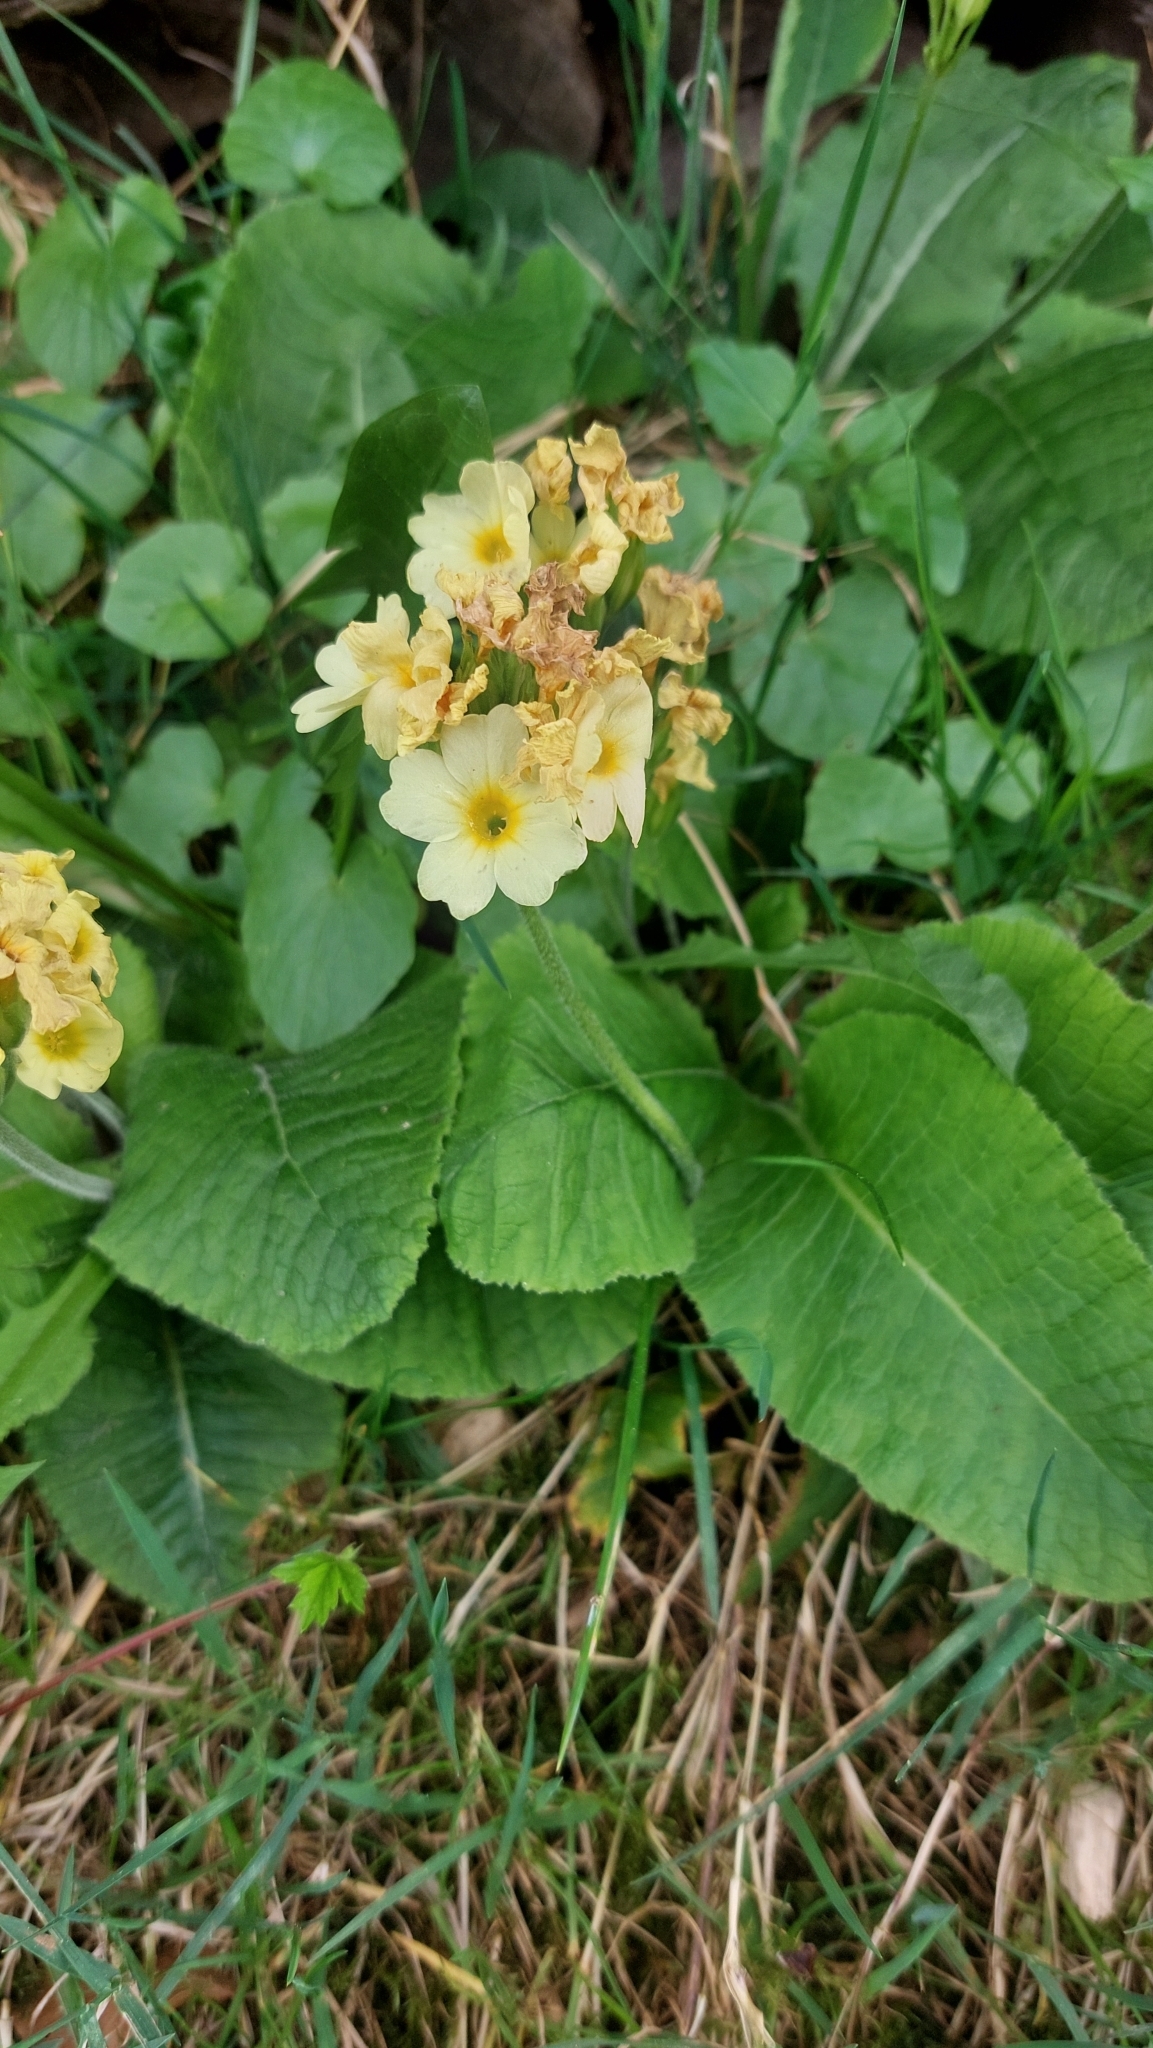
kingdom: Plantae
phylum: Tracheophyta
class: Magnoliopsida
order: Ericales
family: Primulaceae
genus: Primula
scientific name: Primula elatior
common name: Oxlip
